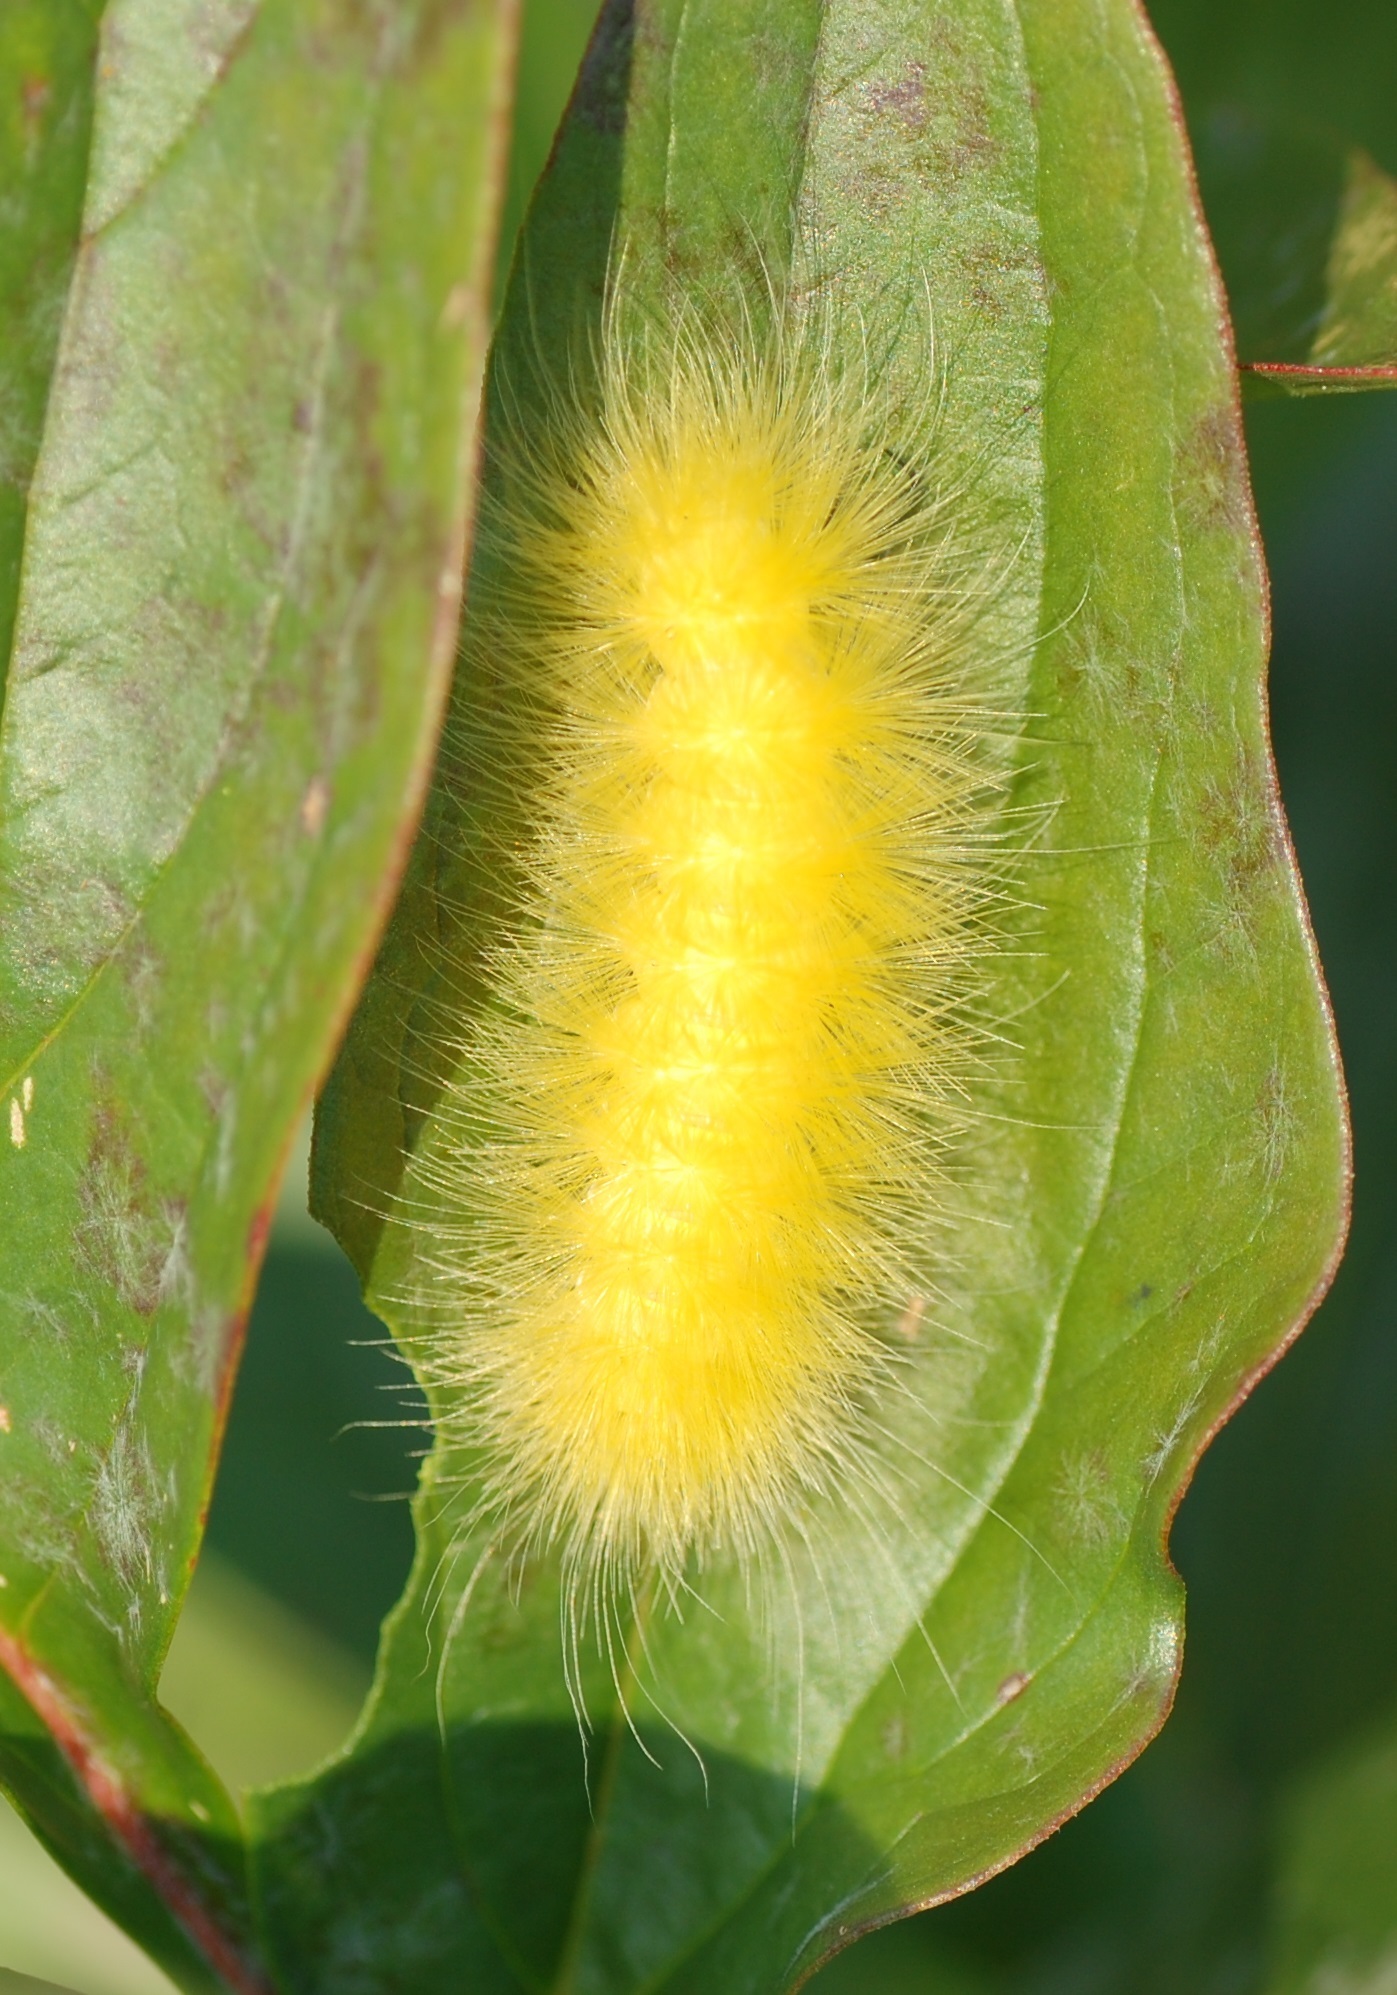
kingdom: Animalia
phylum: Arthropoda
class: Insecta
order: Lepidoptera
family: Erebidae
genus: Spilosoma
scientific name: Spilosoma virginica
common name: Virginia tiger moth
